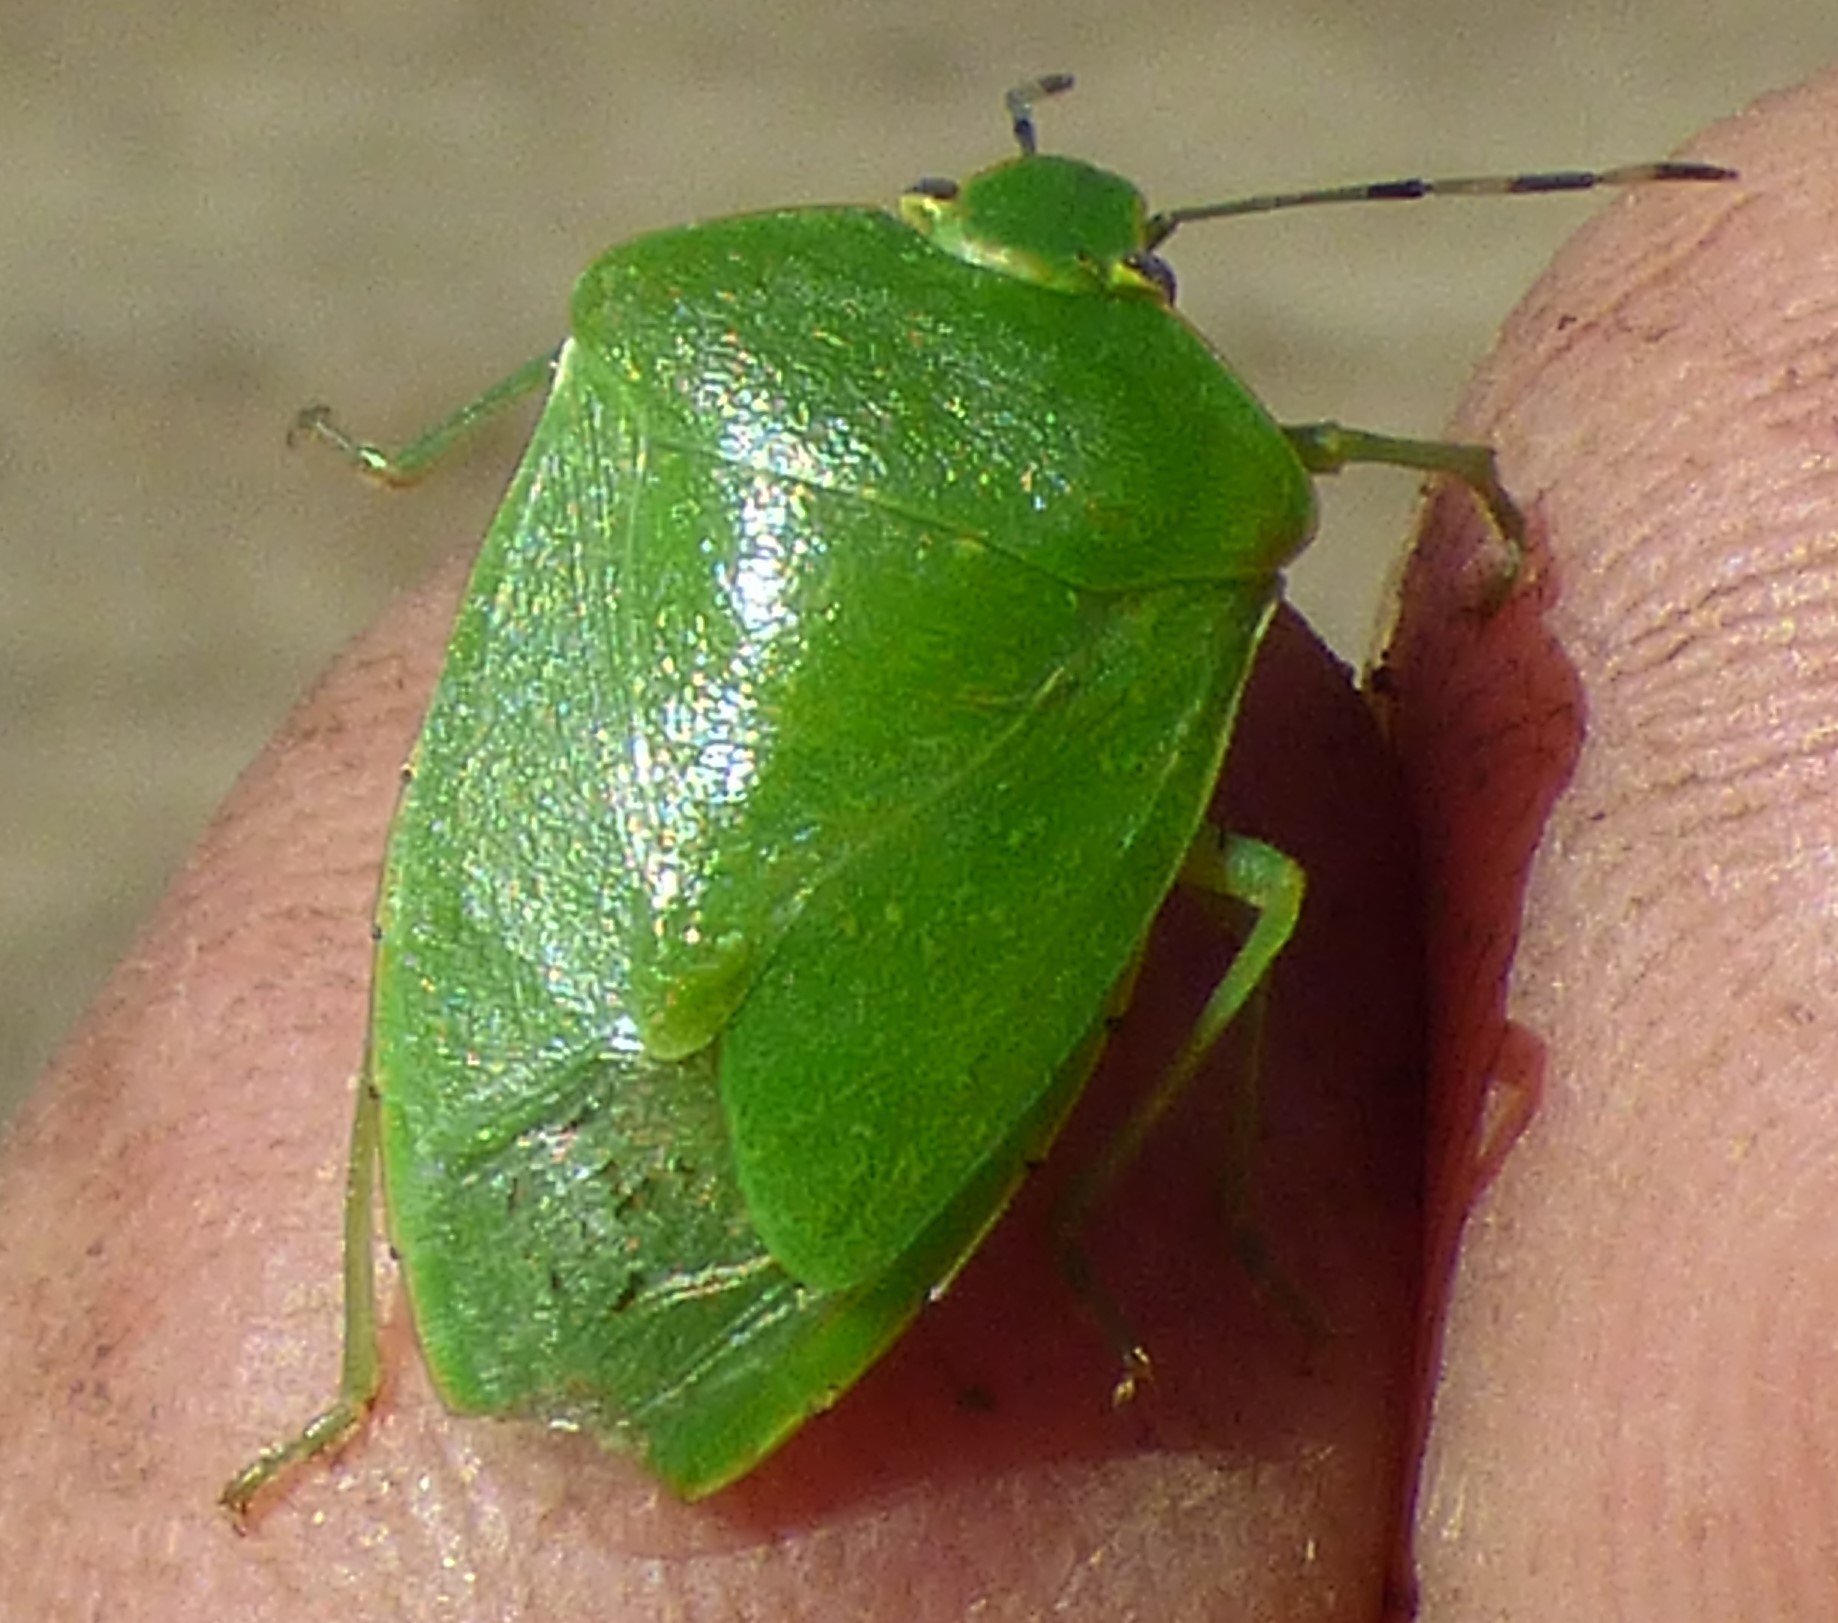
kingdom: Animalia
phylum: Arthropoda
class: Insecta
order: Hemiptera
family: Pentatomidae
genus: Chinavia
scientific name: Chinavia hilaris
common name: Green stink bug
